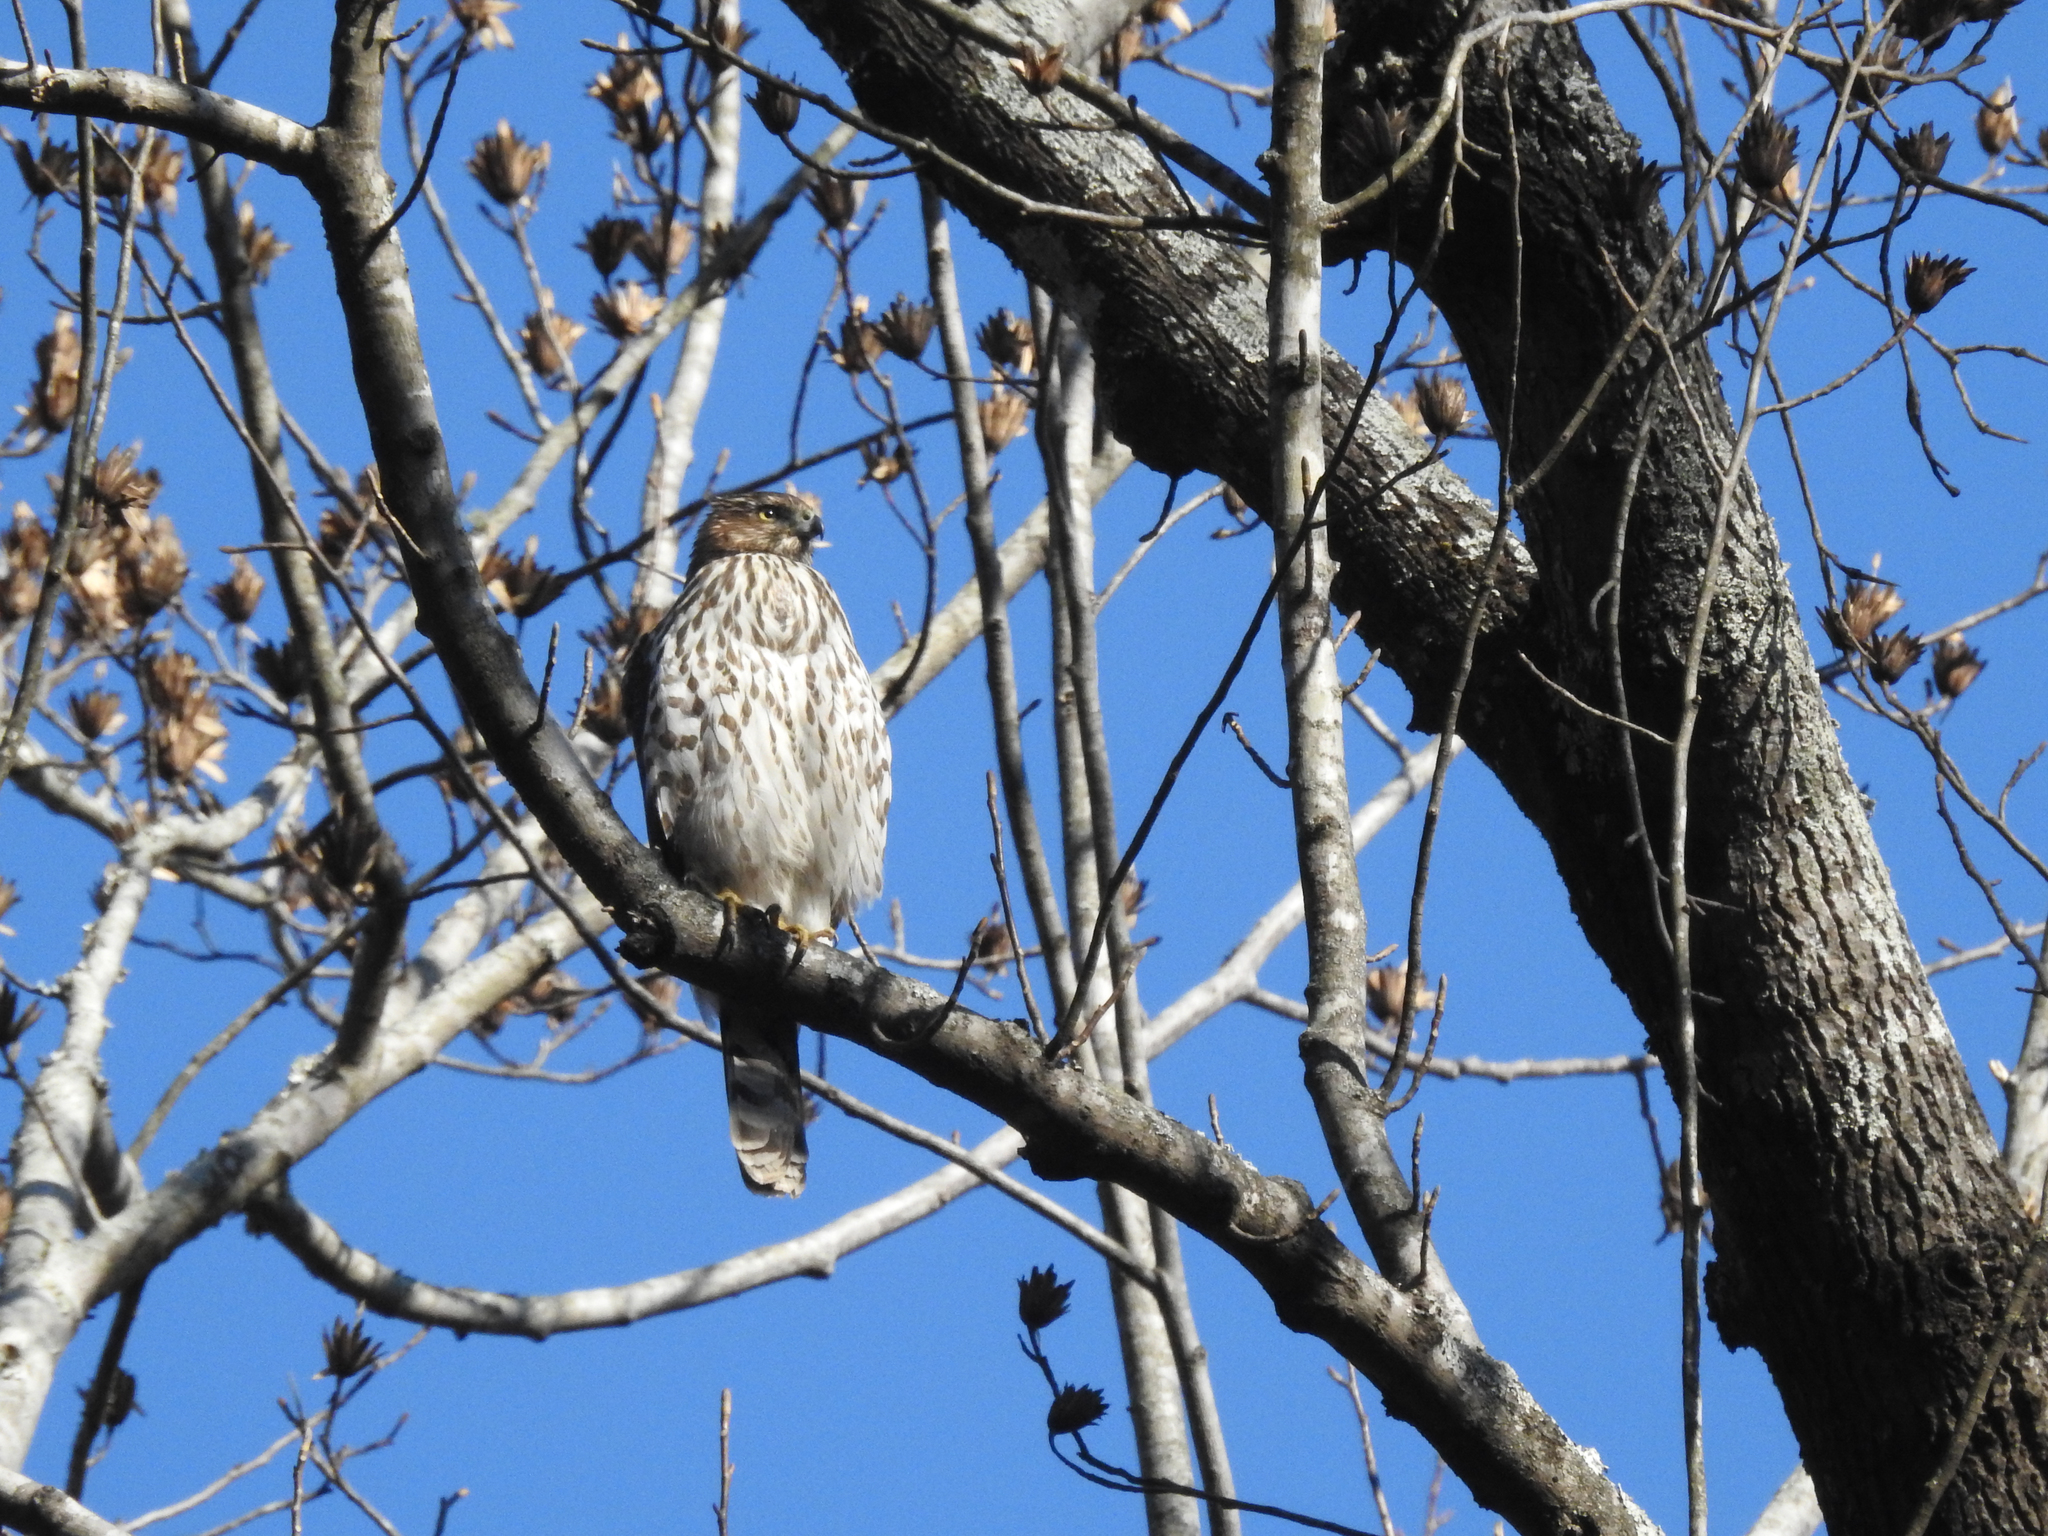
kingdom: Animalia
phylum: Chordata
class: Aves
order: Accipitriformes
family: Accipitridae
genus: Accipiter
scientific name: Accipiter cooperii
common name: Cooper's hawk
